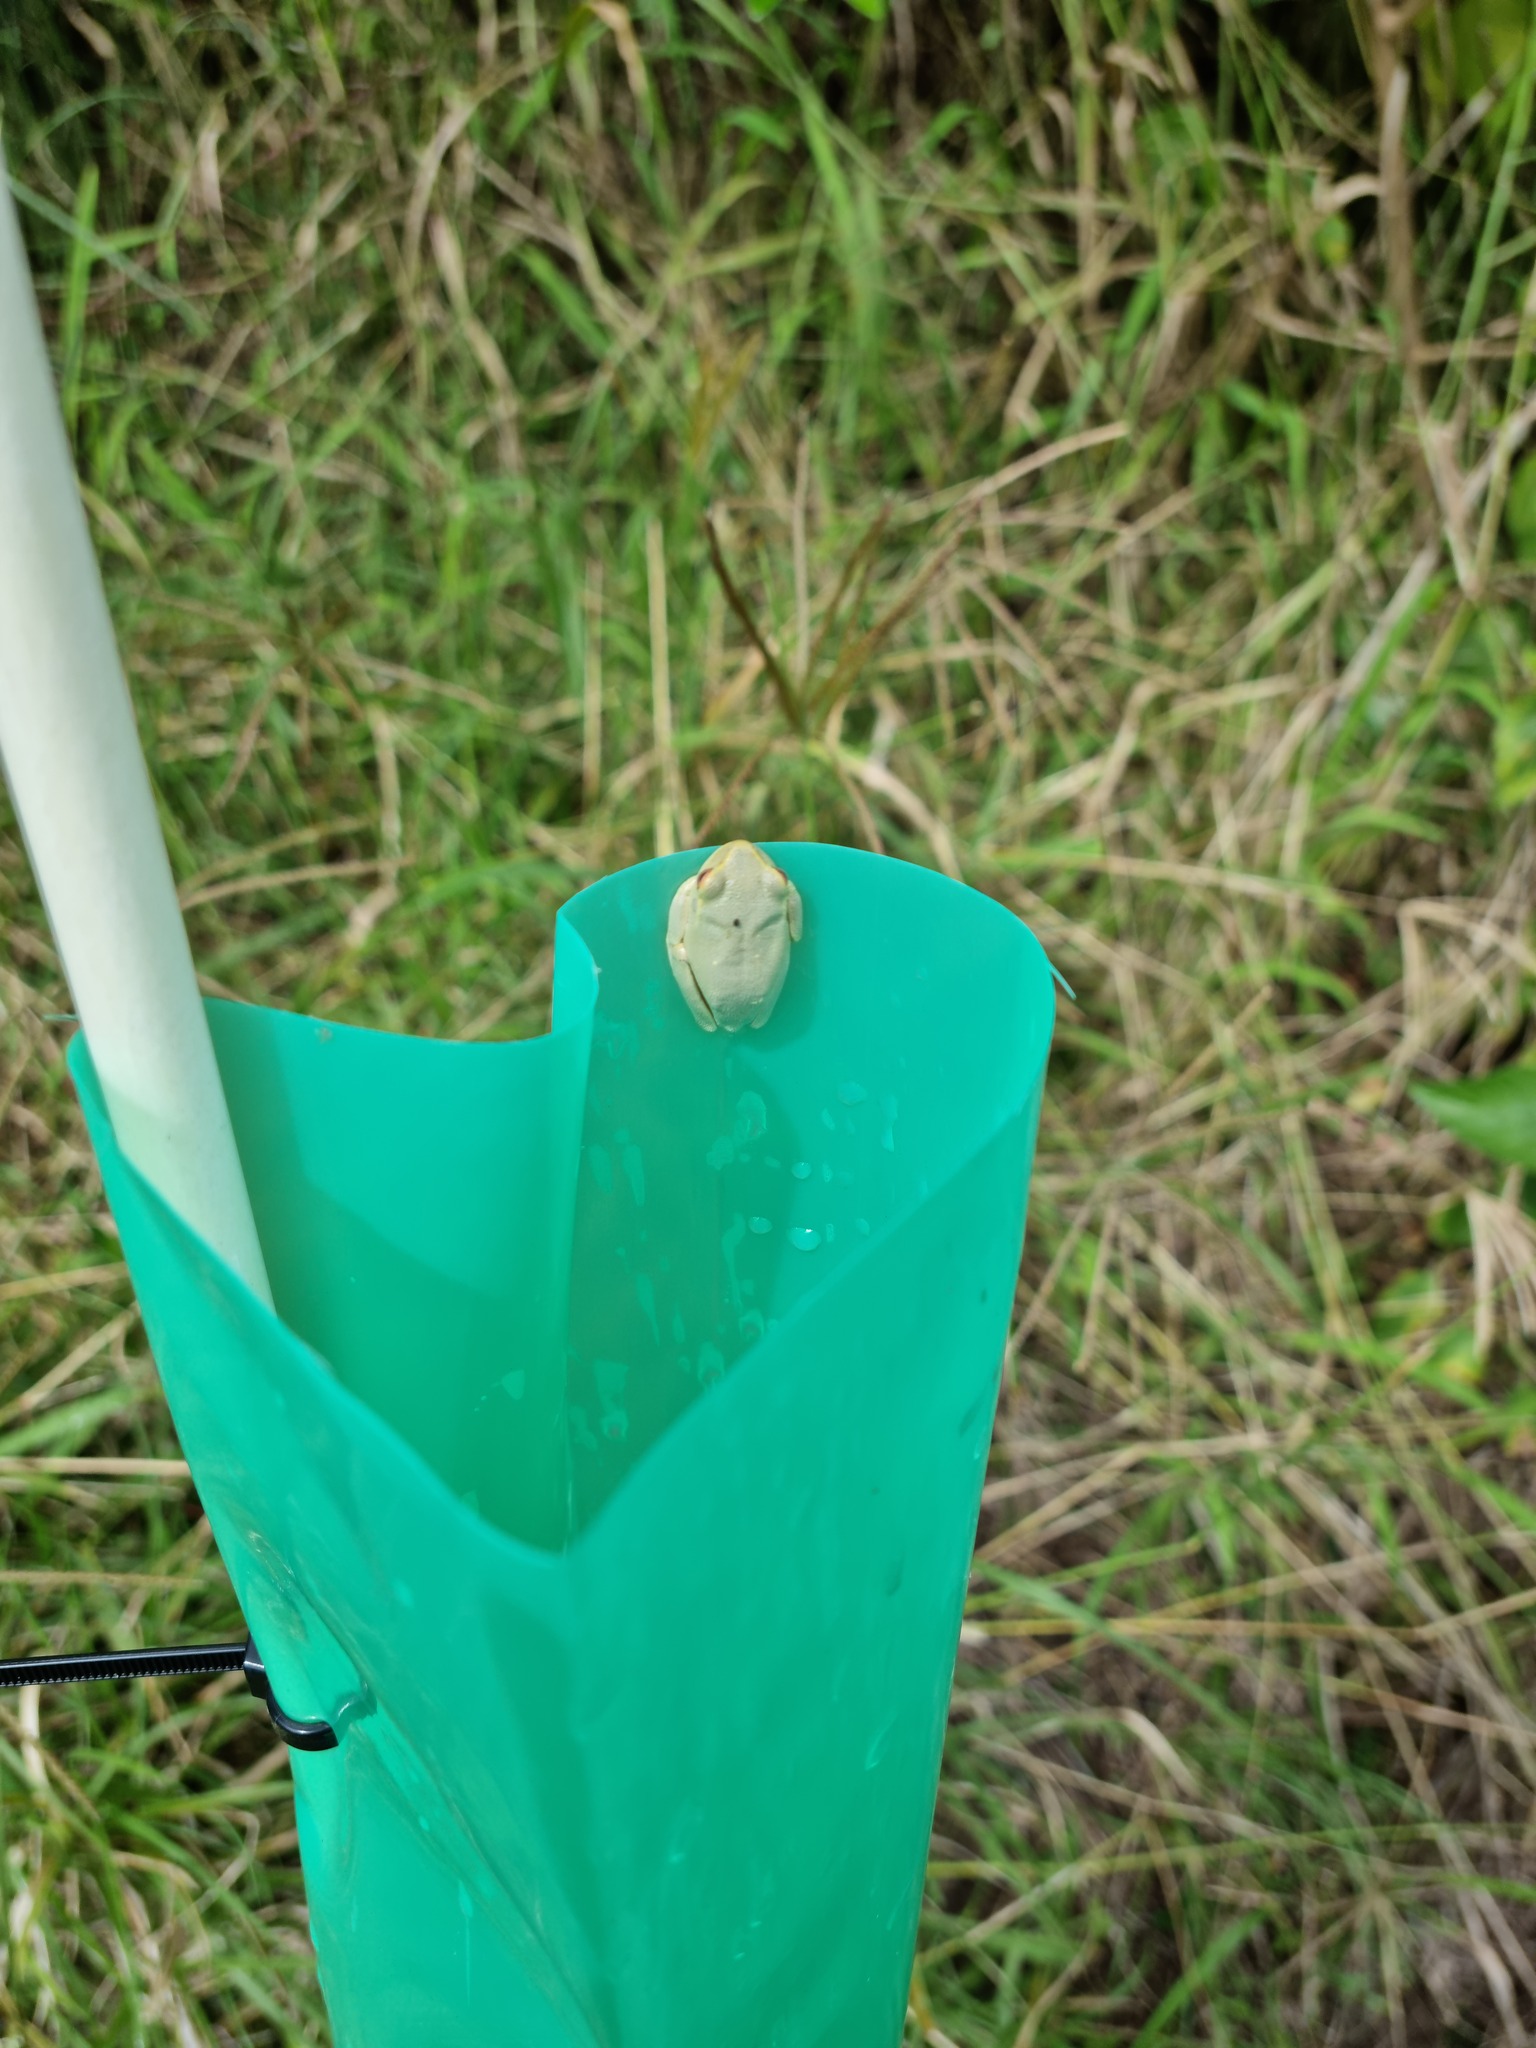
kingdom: Animalia
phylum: Chordata
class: Amphibia
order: Anura
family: Pelodryadidae
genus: Ranoidea
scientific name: Ranoidea gracilenta
